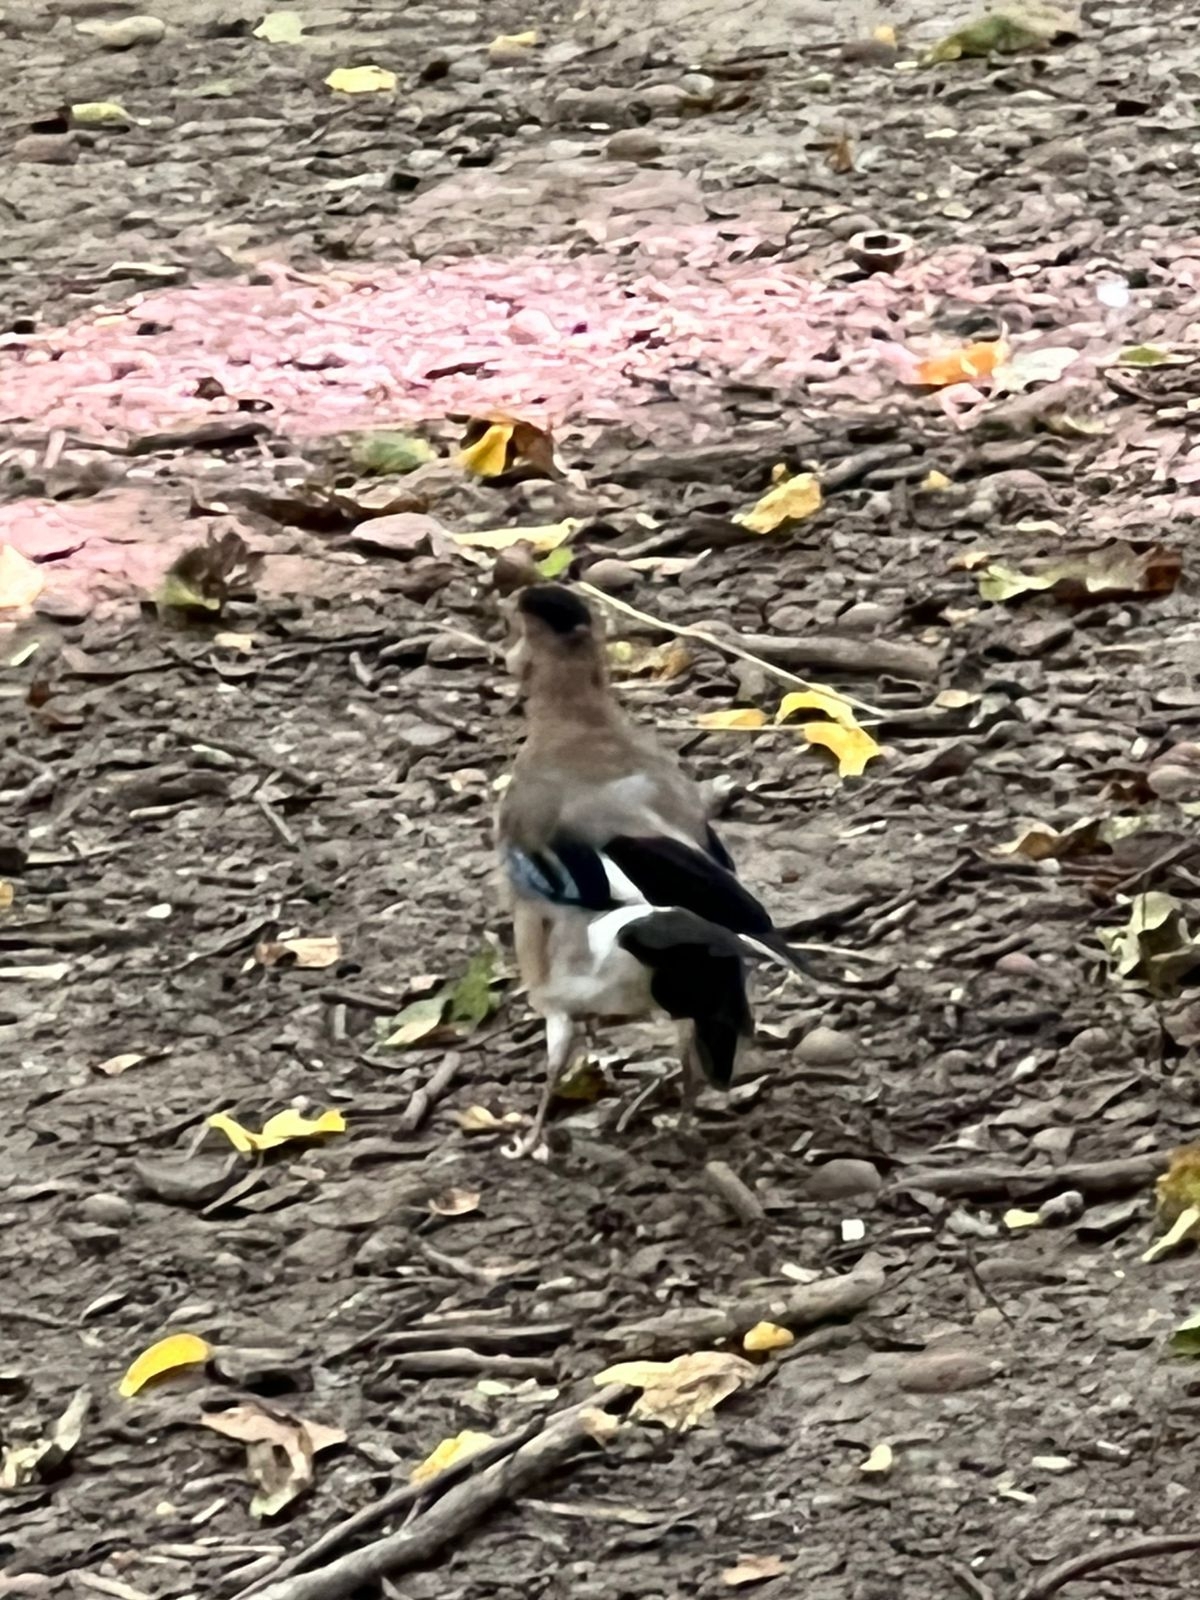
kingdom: Animalia
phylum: Chordata
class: Aves
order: Passeriformes
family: Corvidae
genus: Garrulus
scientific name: Garrulus glandarius
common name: Eurasian jay
